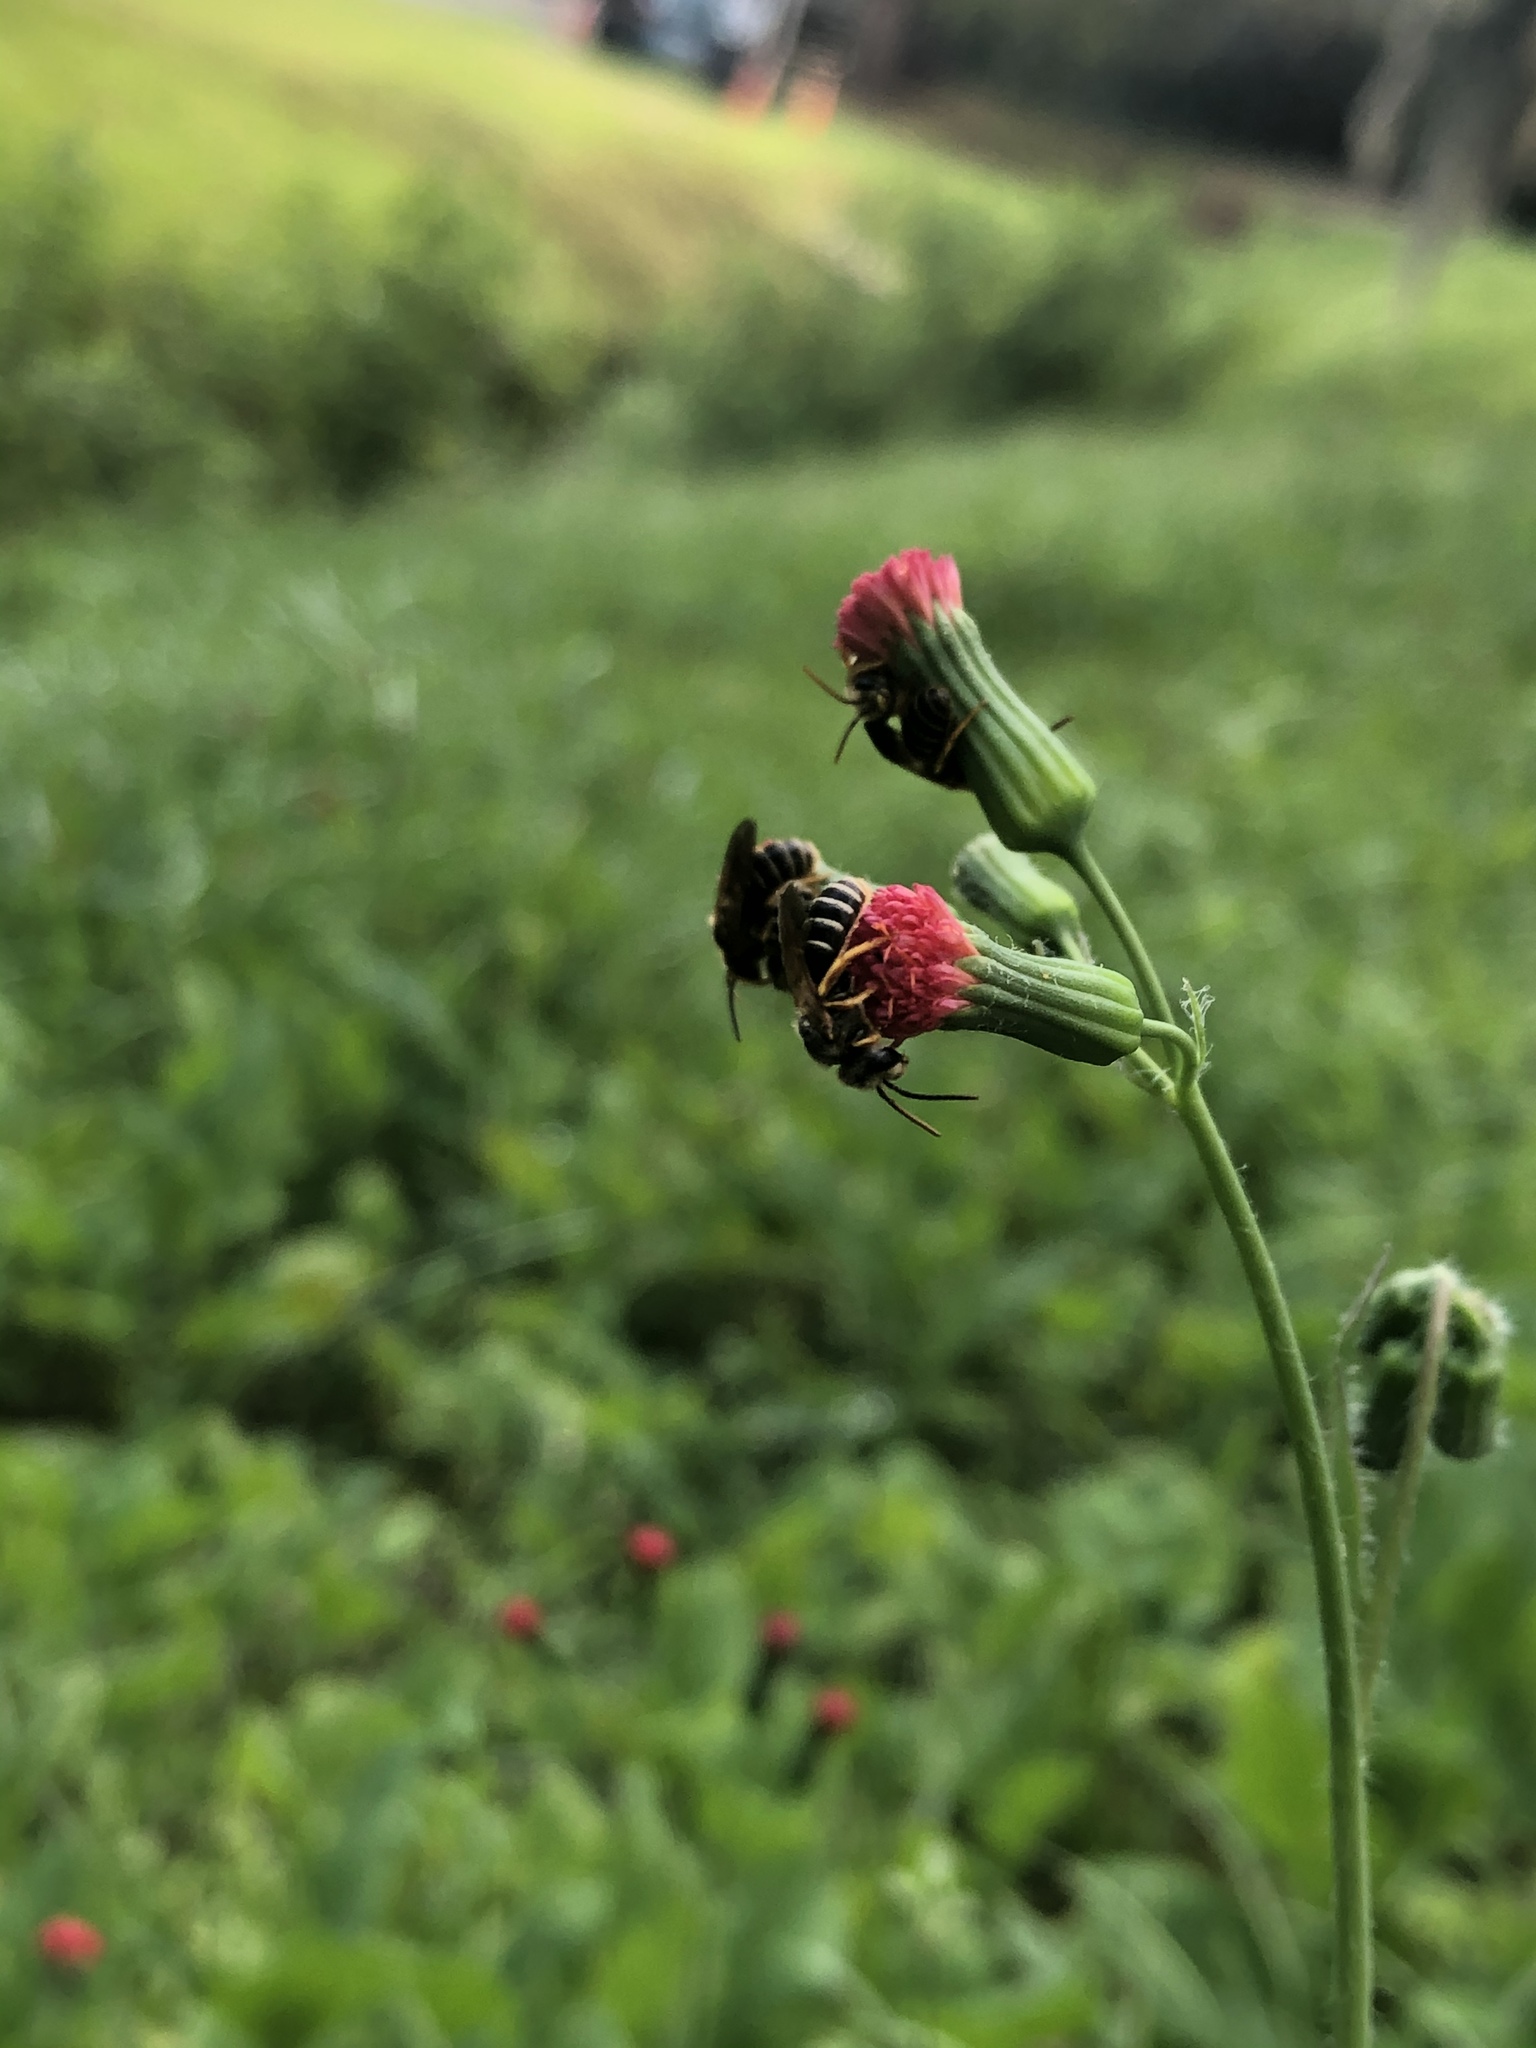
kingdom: Animalia
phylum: Arthropoda
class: Insecta
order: Hymenoptera
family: Halictidae
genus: Halictus
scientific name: Halictus poeyi
